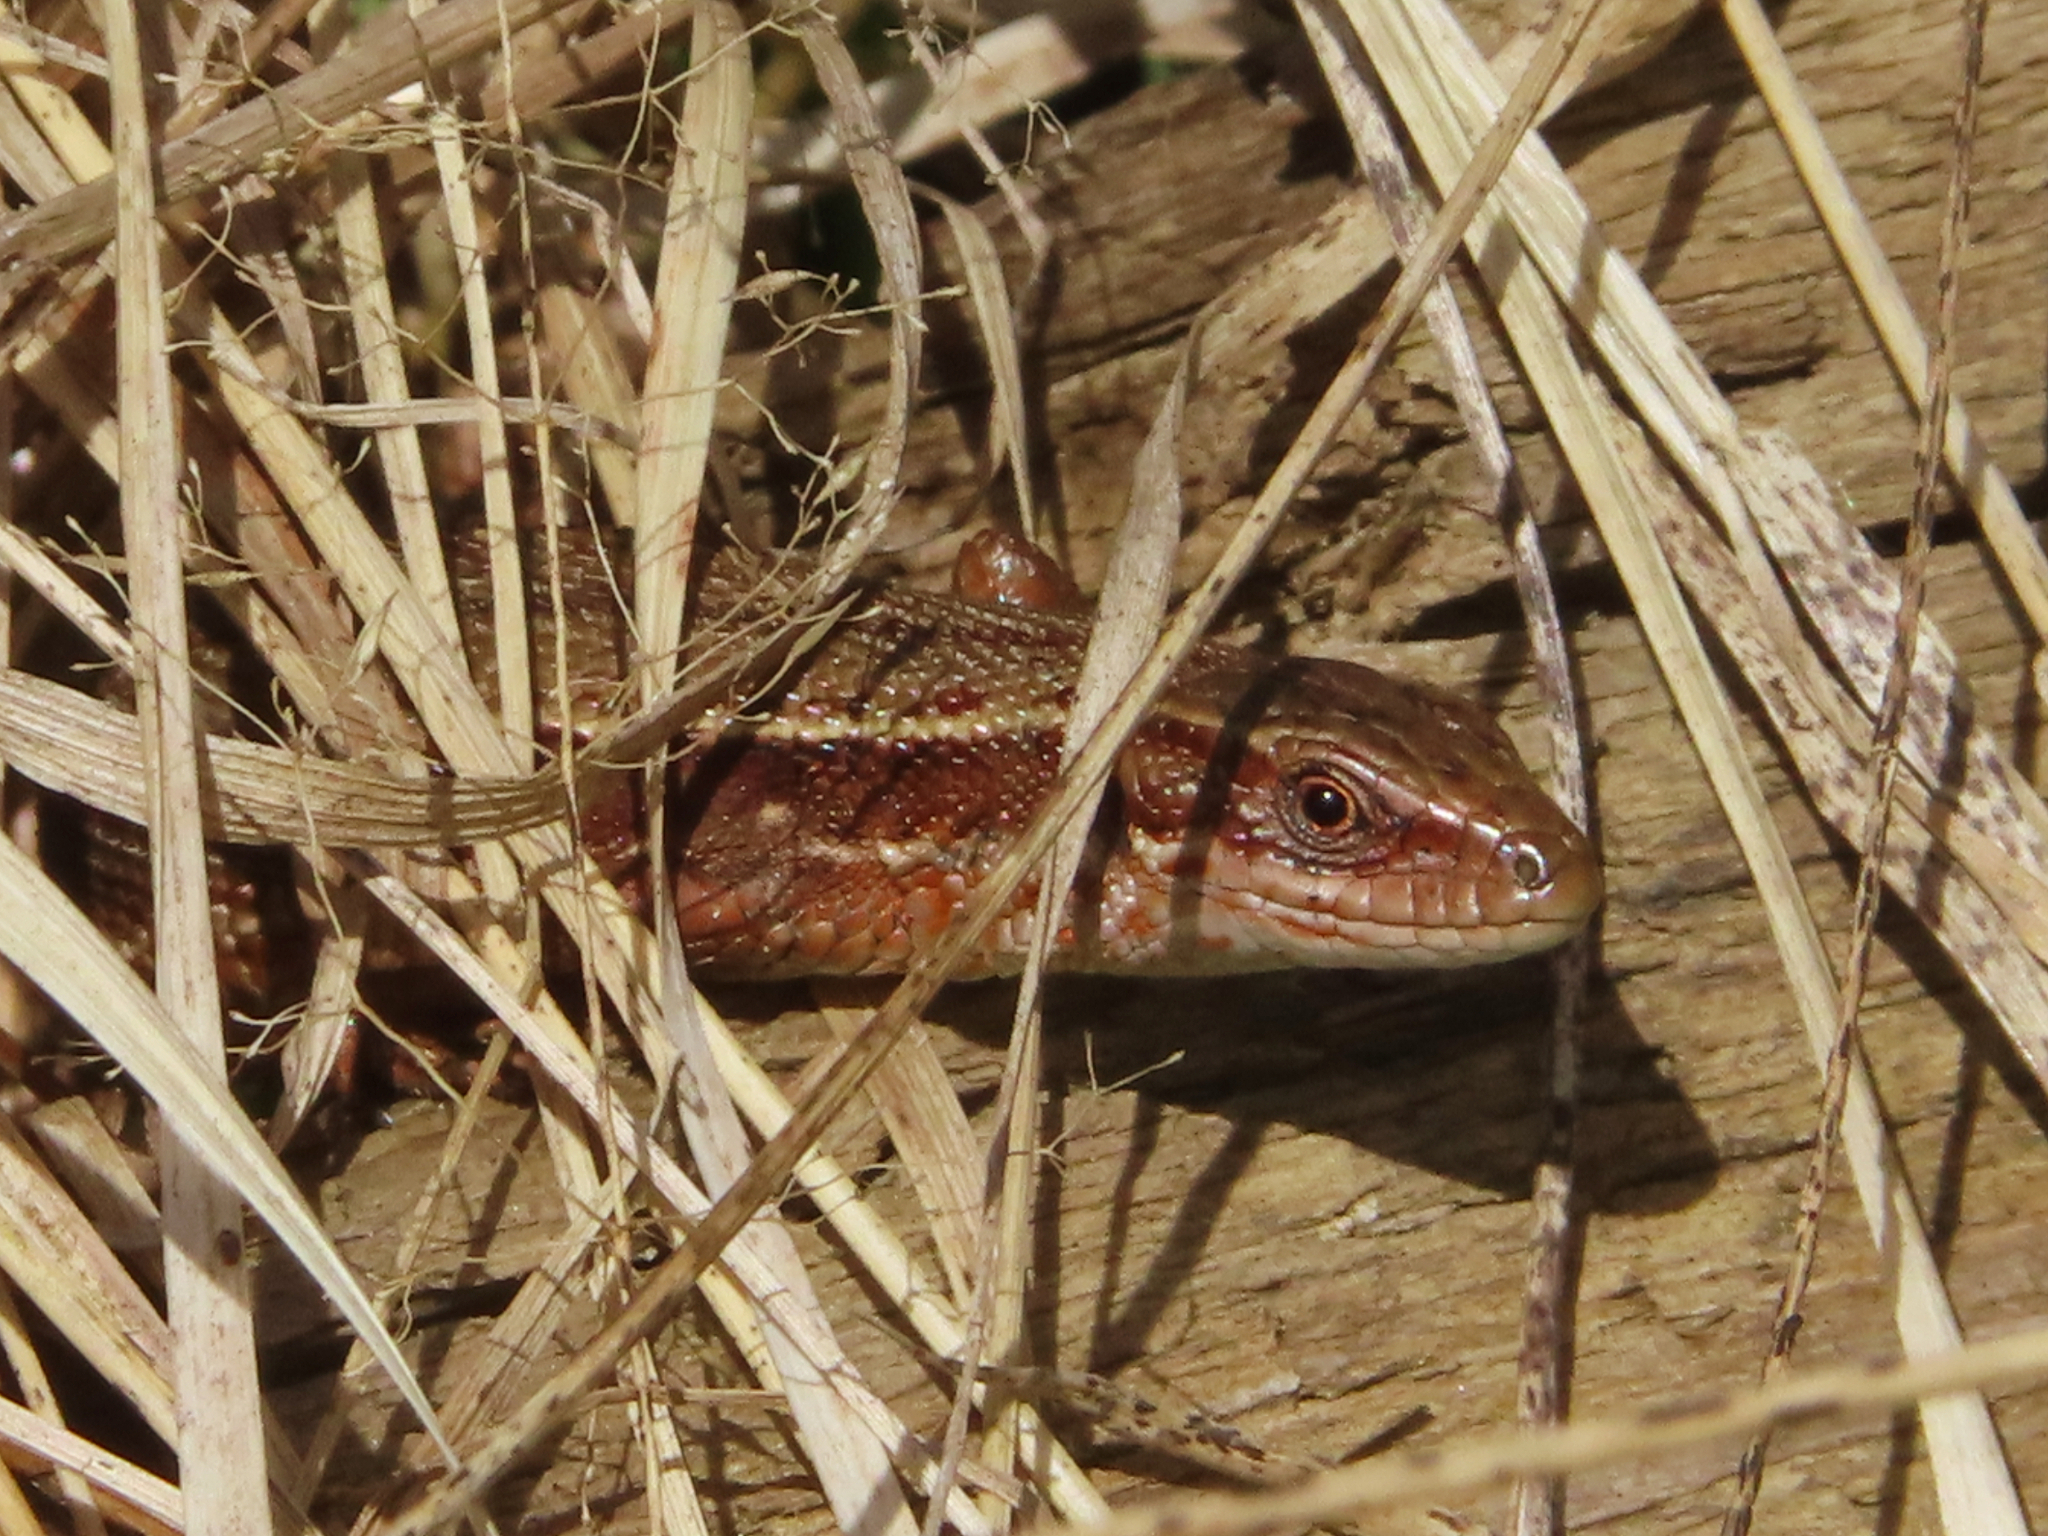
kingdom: Animalia
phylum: Chordata
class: Squamata
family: Lacertidae
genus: Zootoca
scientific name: Zootoca vivipara
